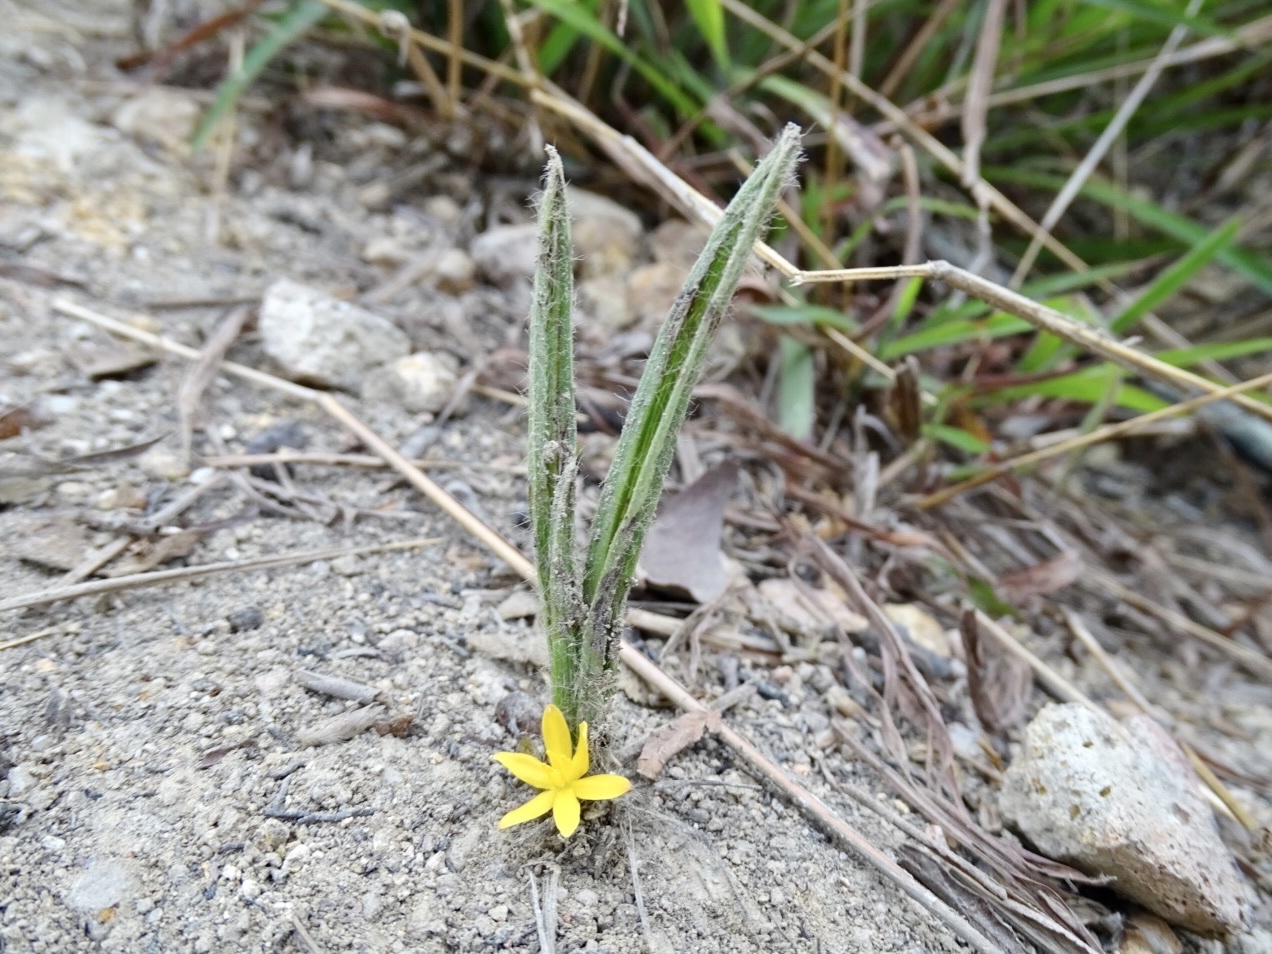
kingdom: Plantae
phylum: Tracheophyta
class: Liliopsida
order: Asparagales
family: Hypoxidaceae
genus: Curculigo
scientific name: Curculigo orchioides
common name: Golden eye-grass
